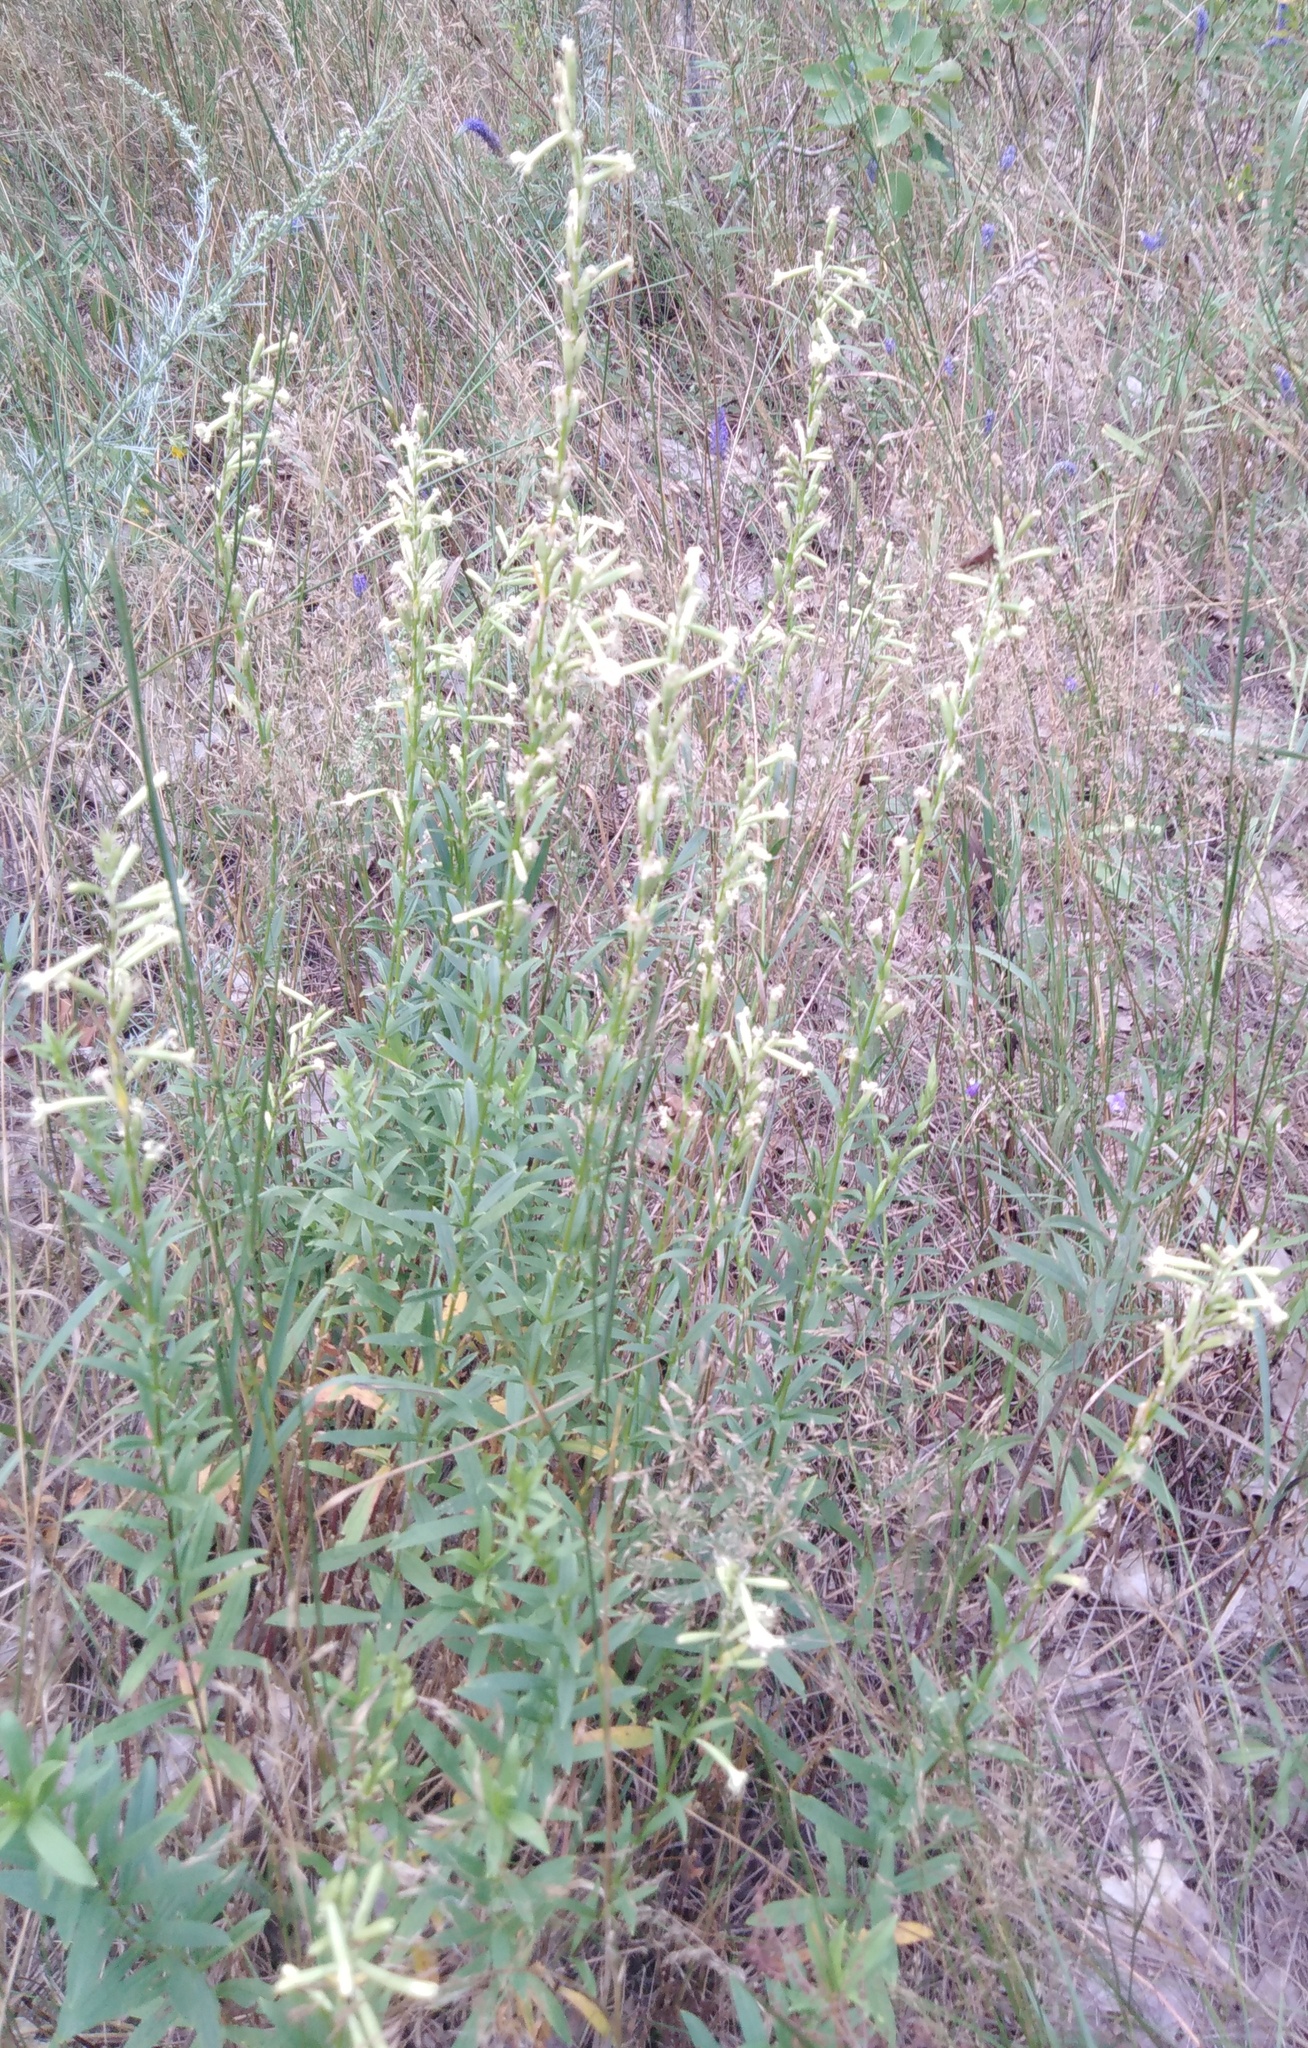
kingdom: Plantae
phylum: Tracheophyta
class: Magnoliopsida
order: Caryophyllales
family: Caryophyllaceae
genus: Silene
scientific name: Silene tatarica
